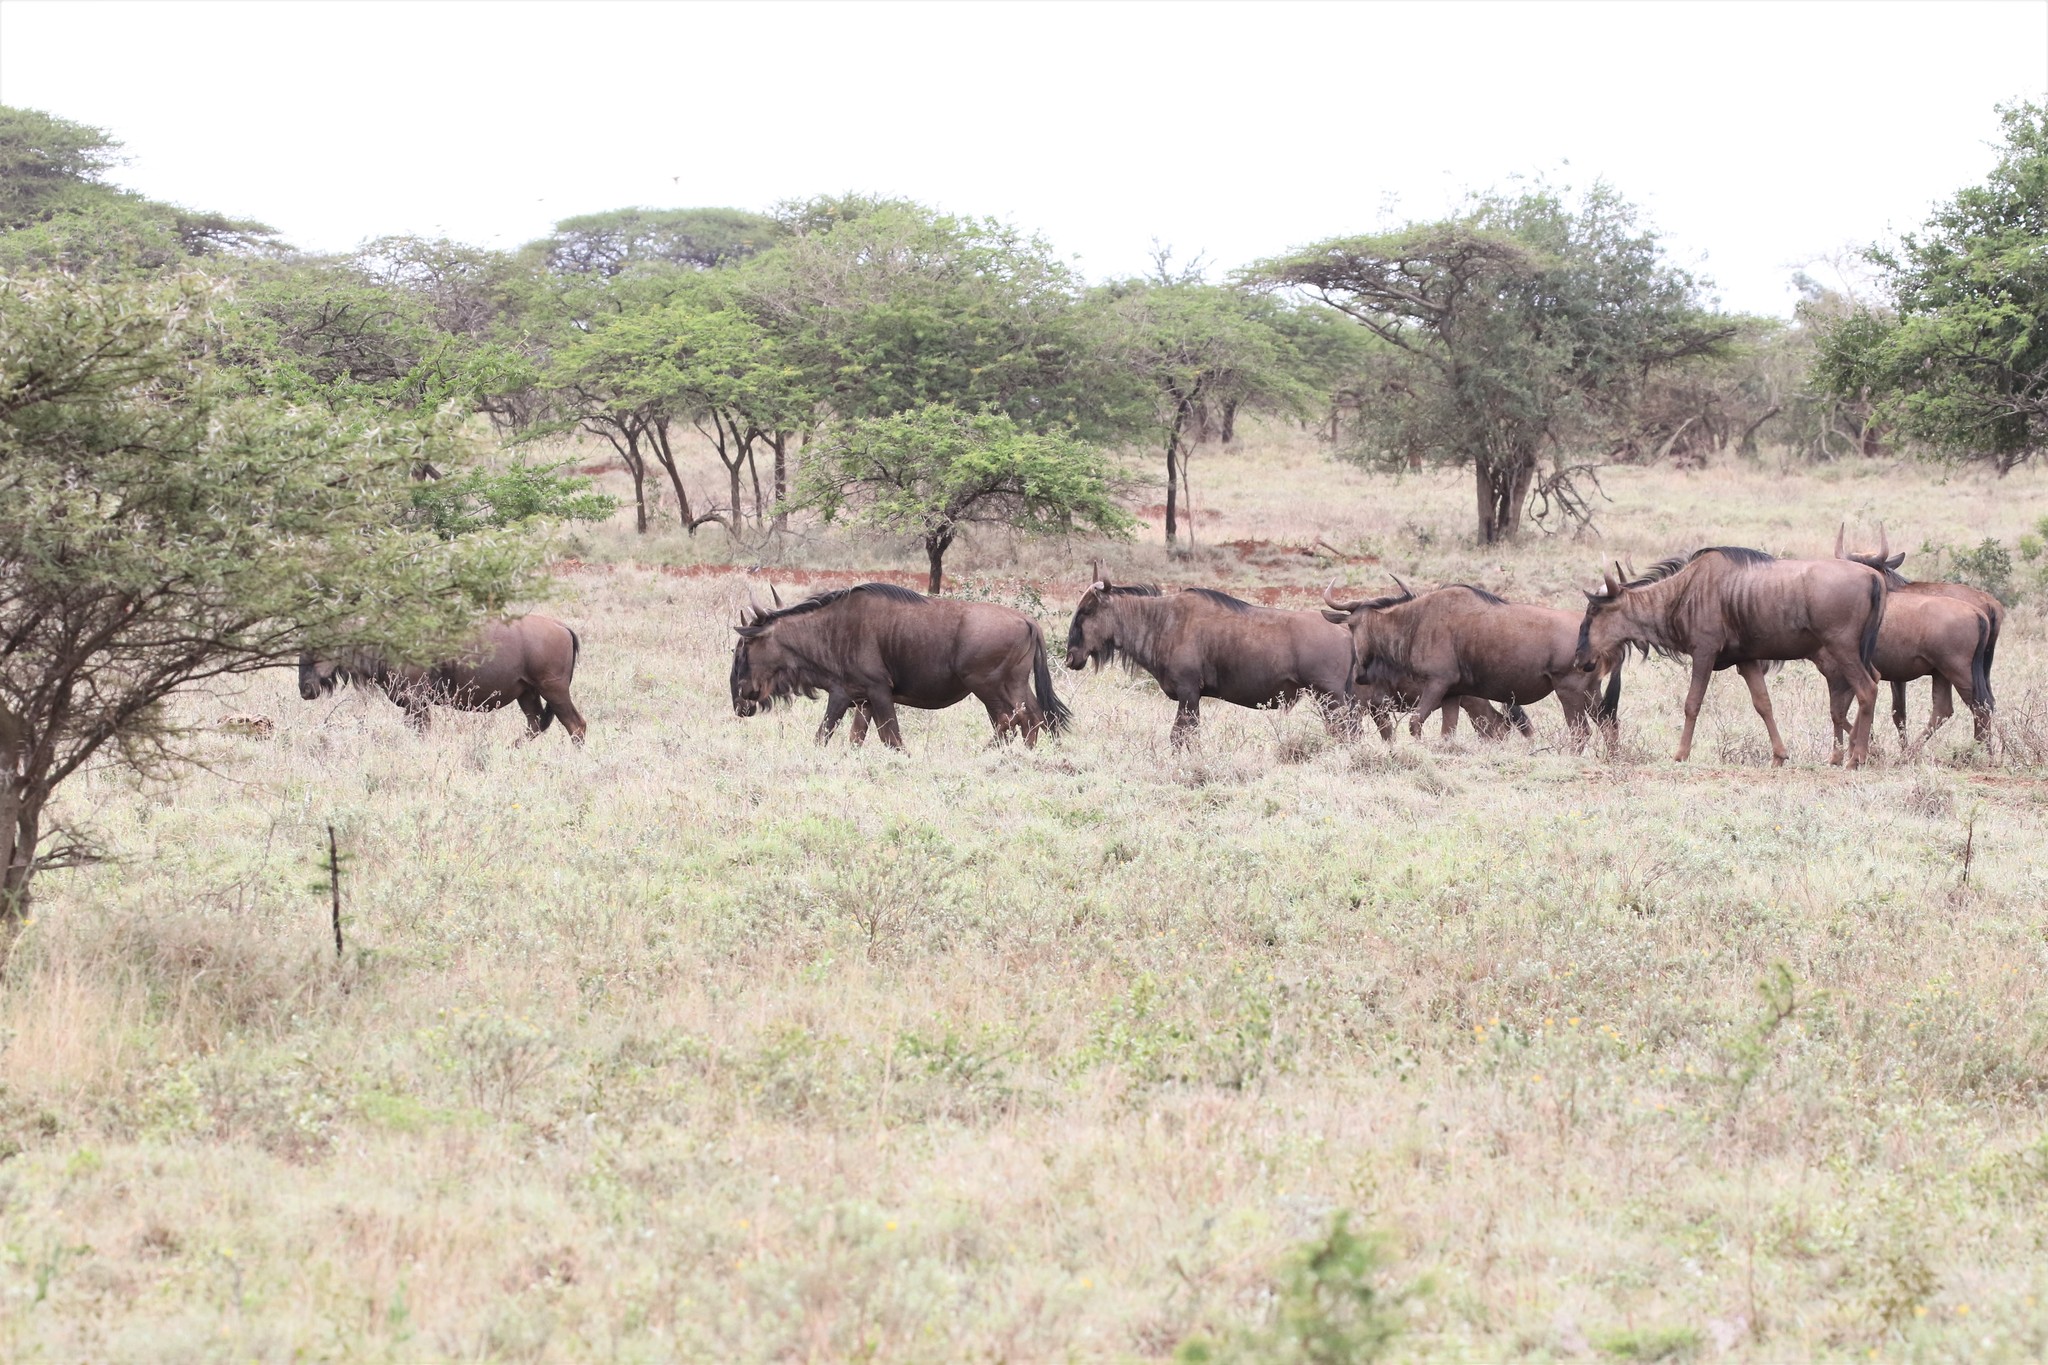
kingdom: Animalia
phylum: Chordata
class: Mammalia
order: Artiodactyla
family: Bovidae
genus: Connochaetes
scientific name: Connochaetes taurinus
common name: Blue wildebeest
